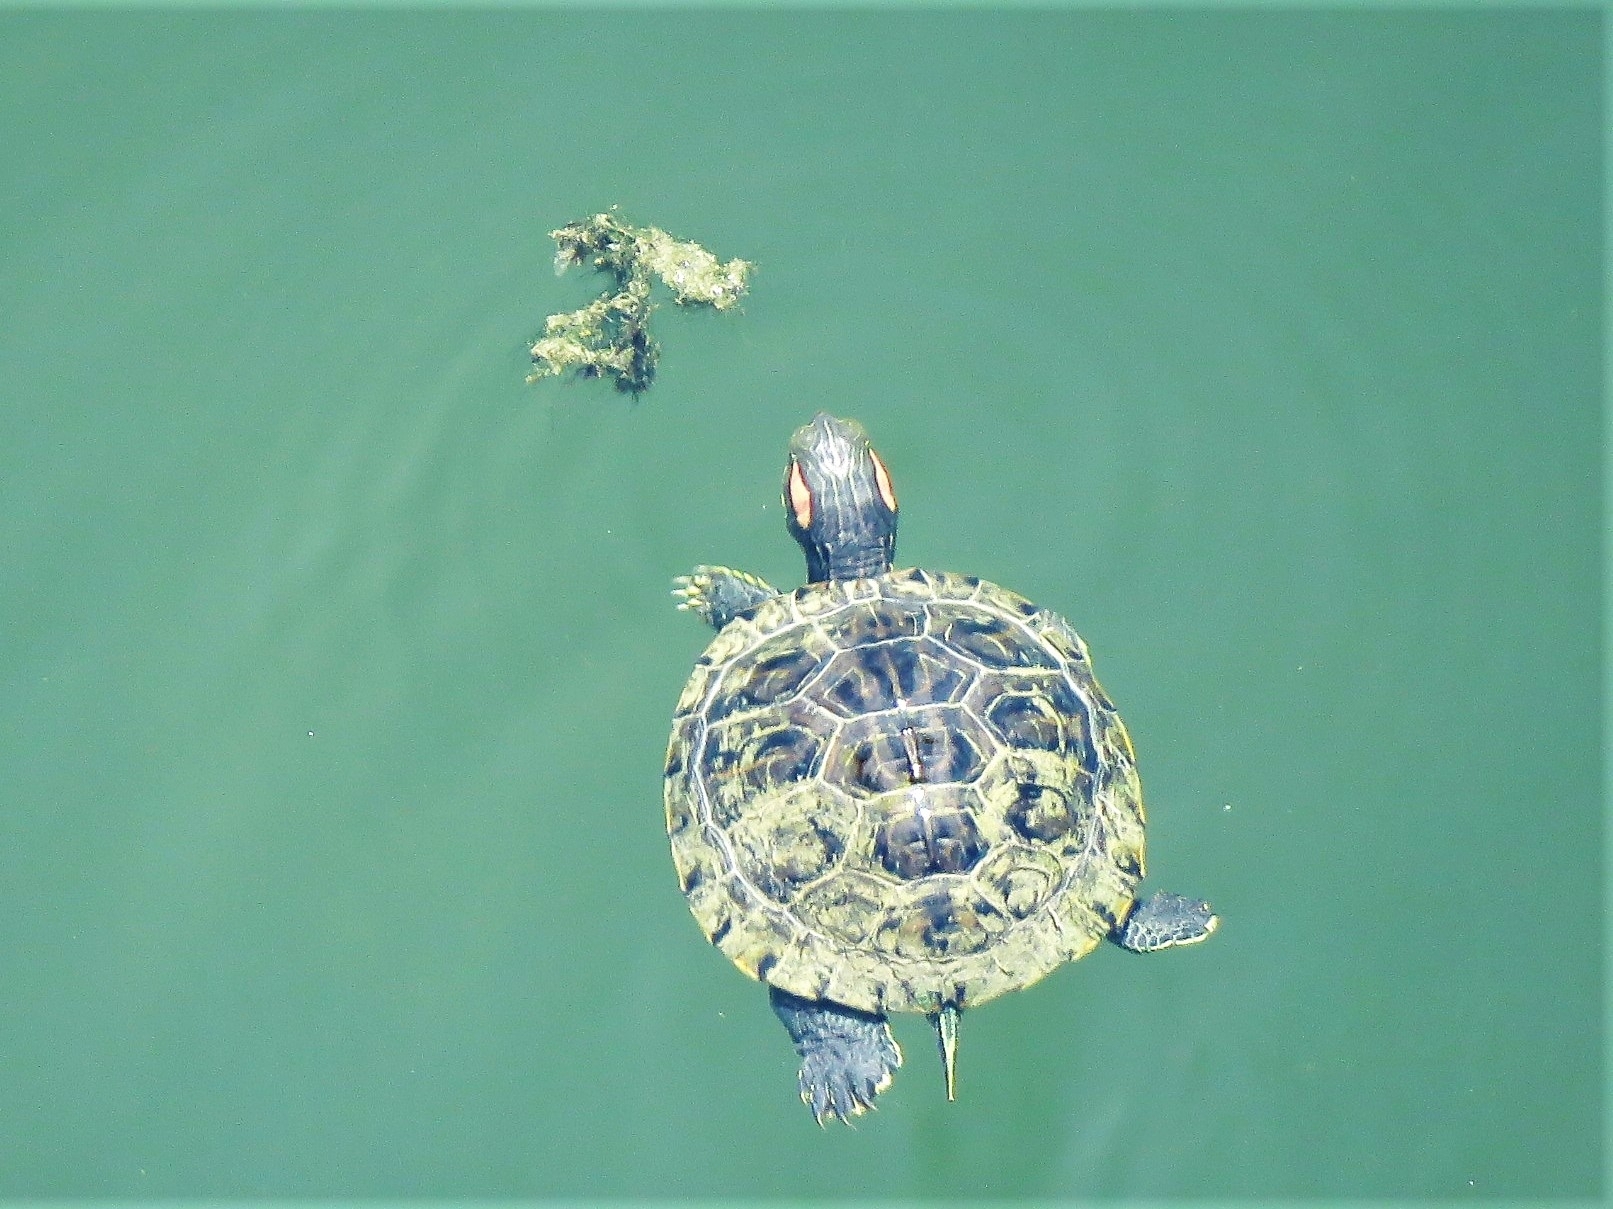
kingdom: Animalia
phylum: Chordata
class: Testudines
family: Emydidae
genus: Trachemys
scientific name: Trachemys scripta
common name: Slider
